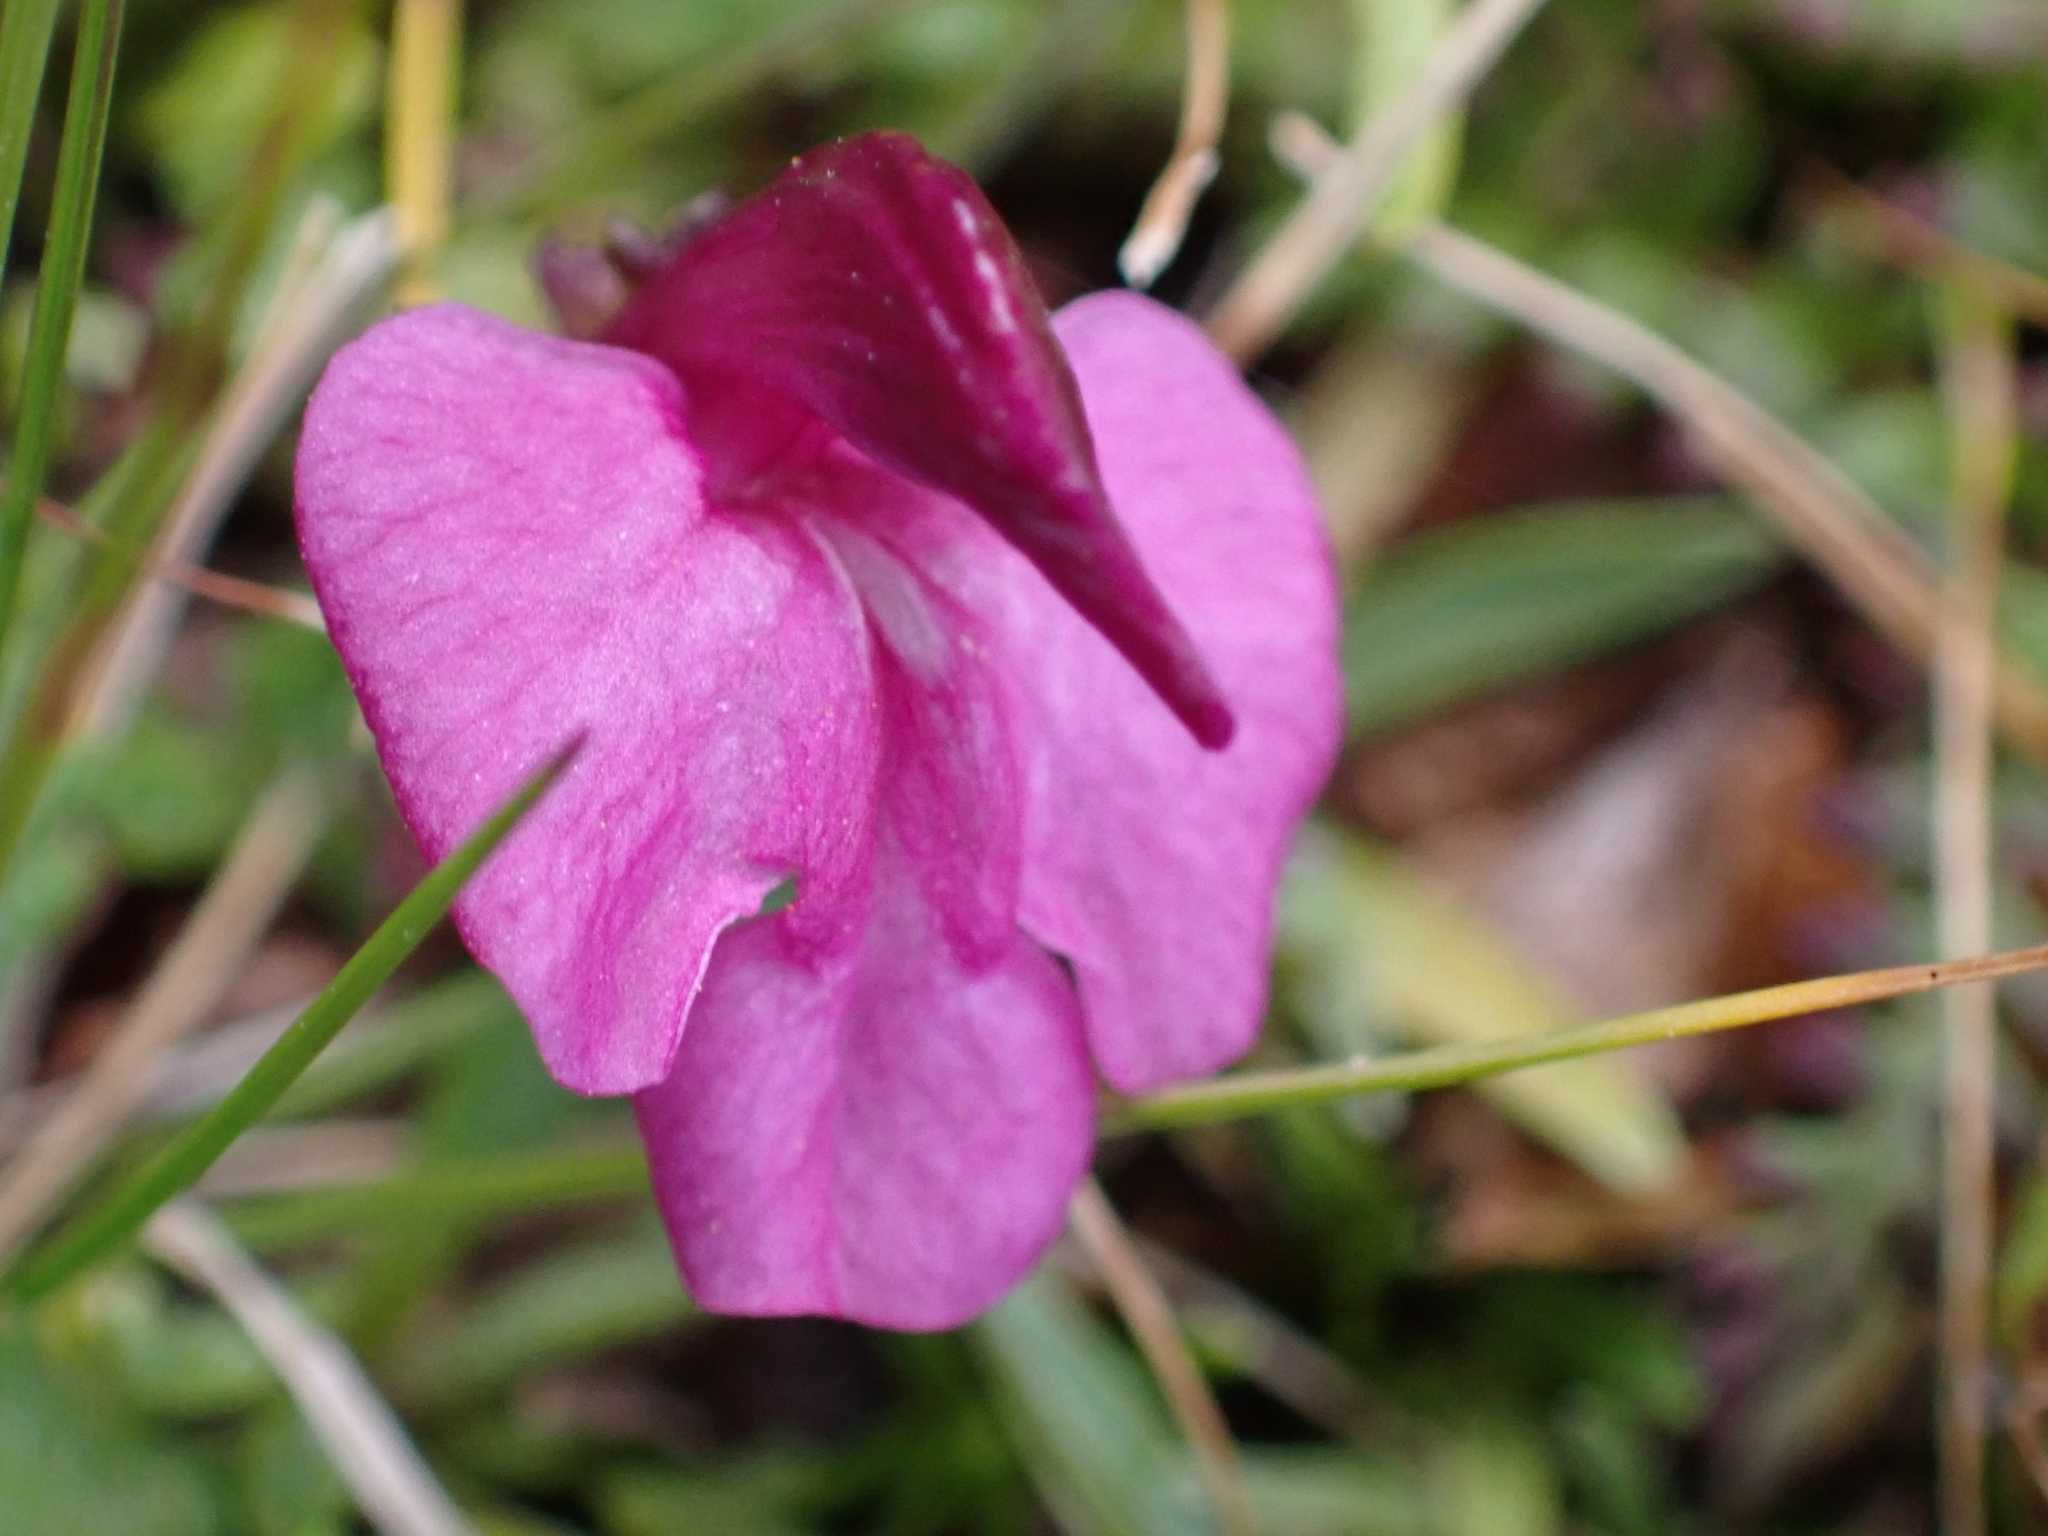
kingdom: Plantae
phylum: Tracheophyta
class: Magnoliopsida
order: Lamiales
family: Orobanchaceae
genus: Pedicularis
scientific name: Pedicularis kerneri
